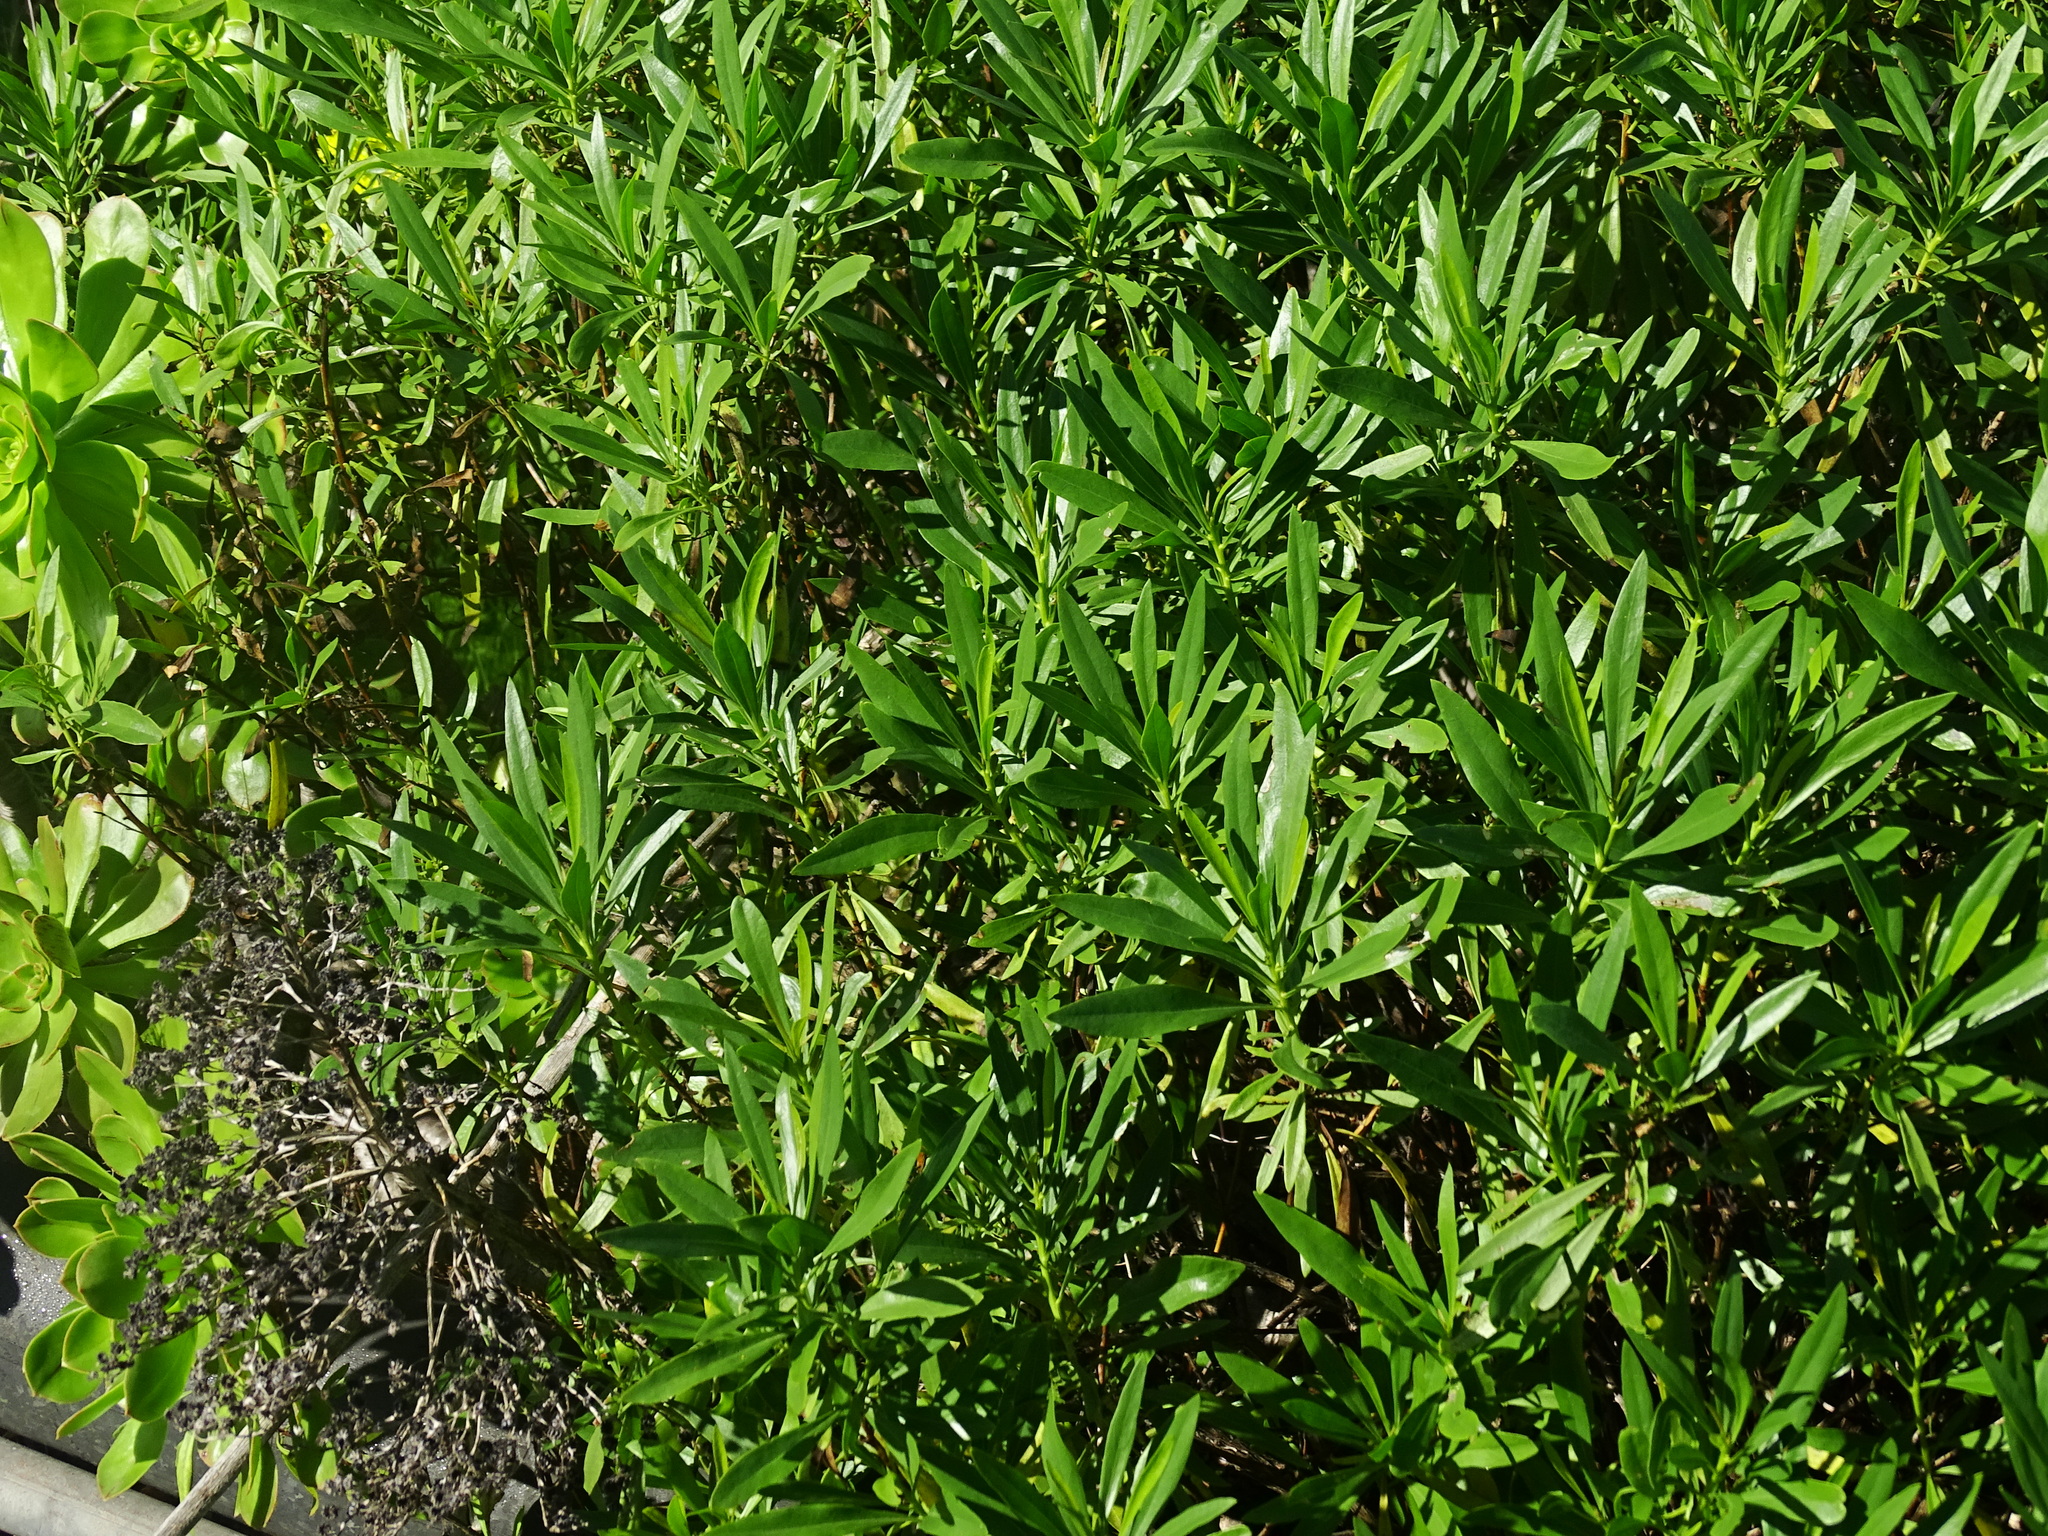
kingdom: Plantae
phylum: Tracheophyta
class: Magnoliopsida
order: Lamiales
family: Plantaginaceae
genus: Globularia
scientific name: Globularia salicina
